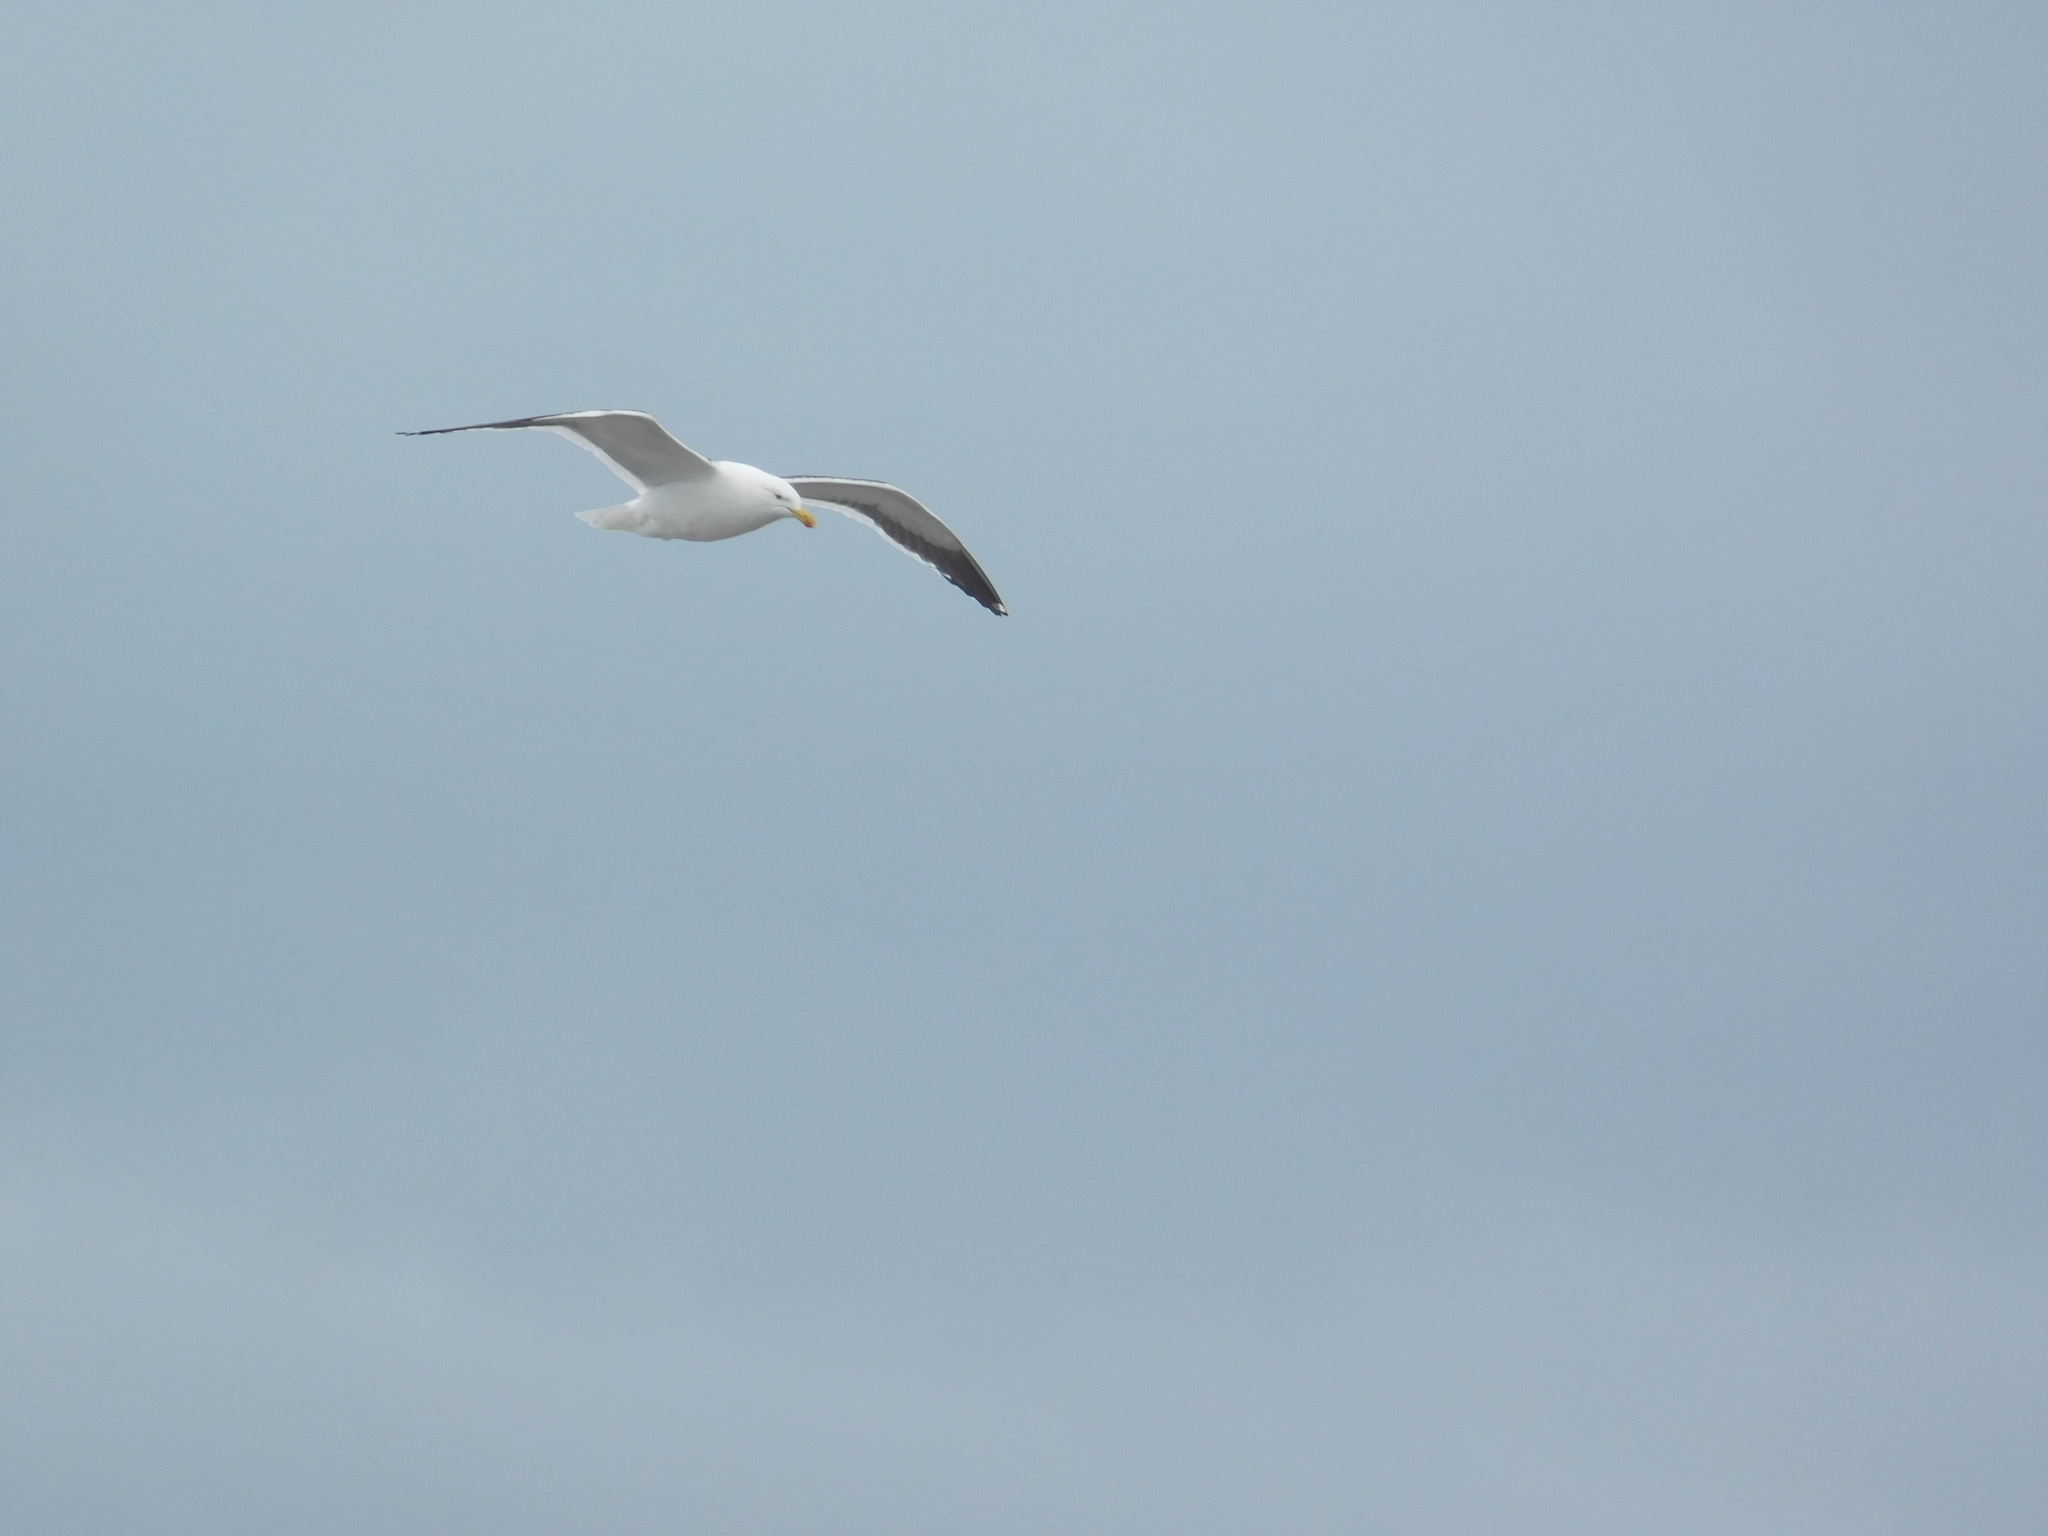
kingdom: Animalia
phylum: Chordata
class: Aves
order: Charadriiformes
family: Laridae
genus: Larus
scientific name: Larus dominicanus
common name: Kelp gull
